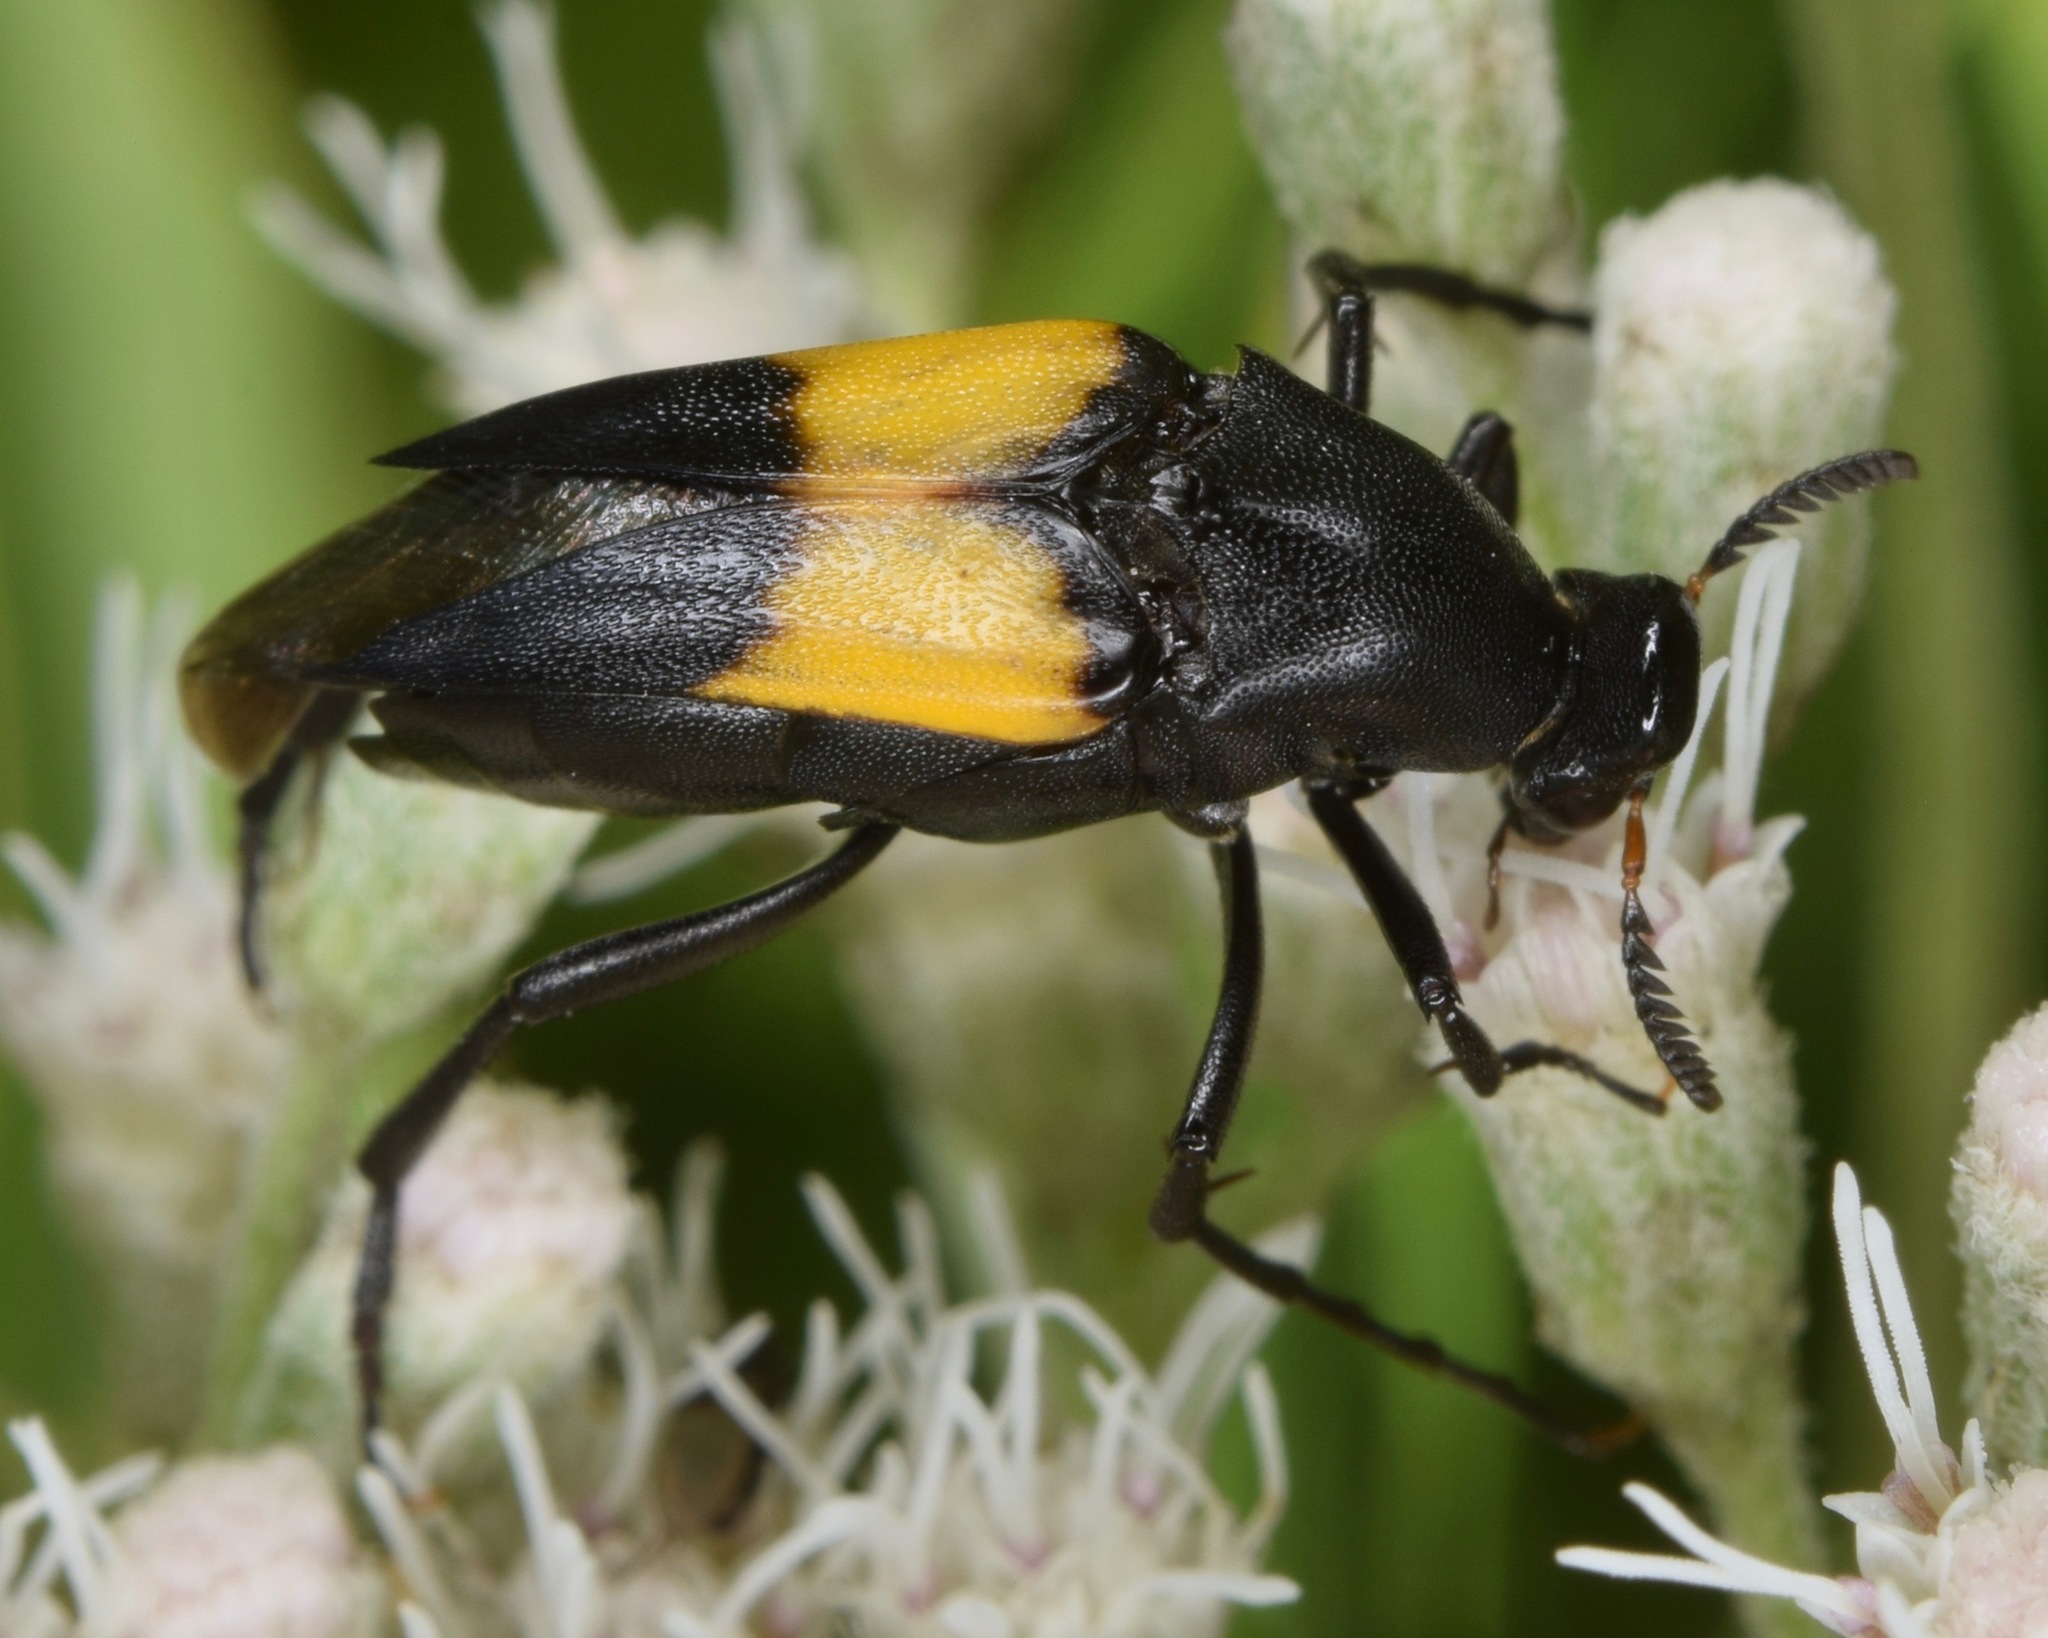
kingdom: Animalia
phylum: Arthropoda
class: Insecta
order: Coleoptera
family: Ripiphoridae
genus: Macrosiagon
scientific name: Macrosiagon dimidiata
